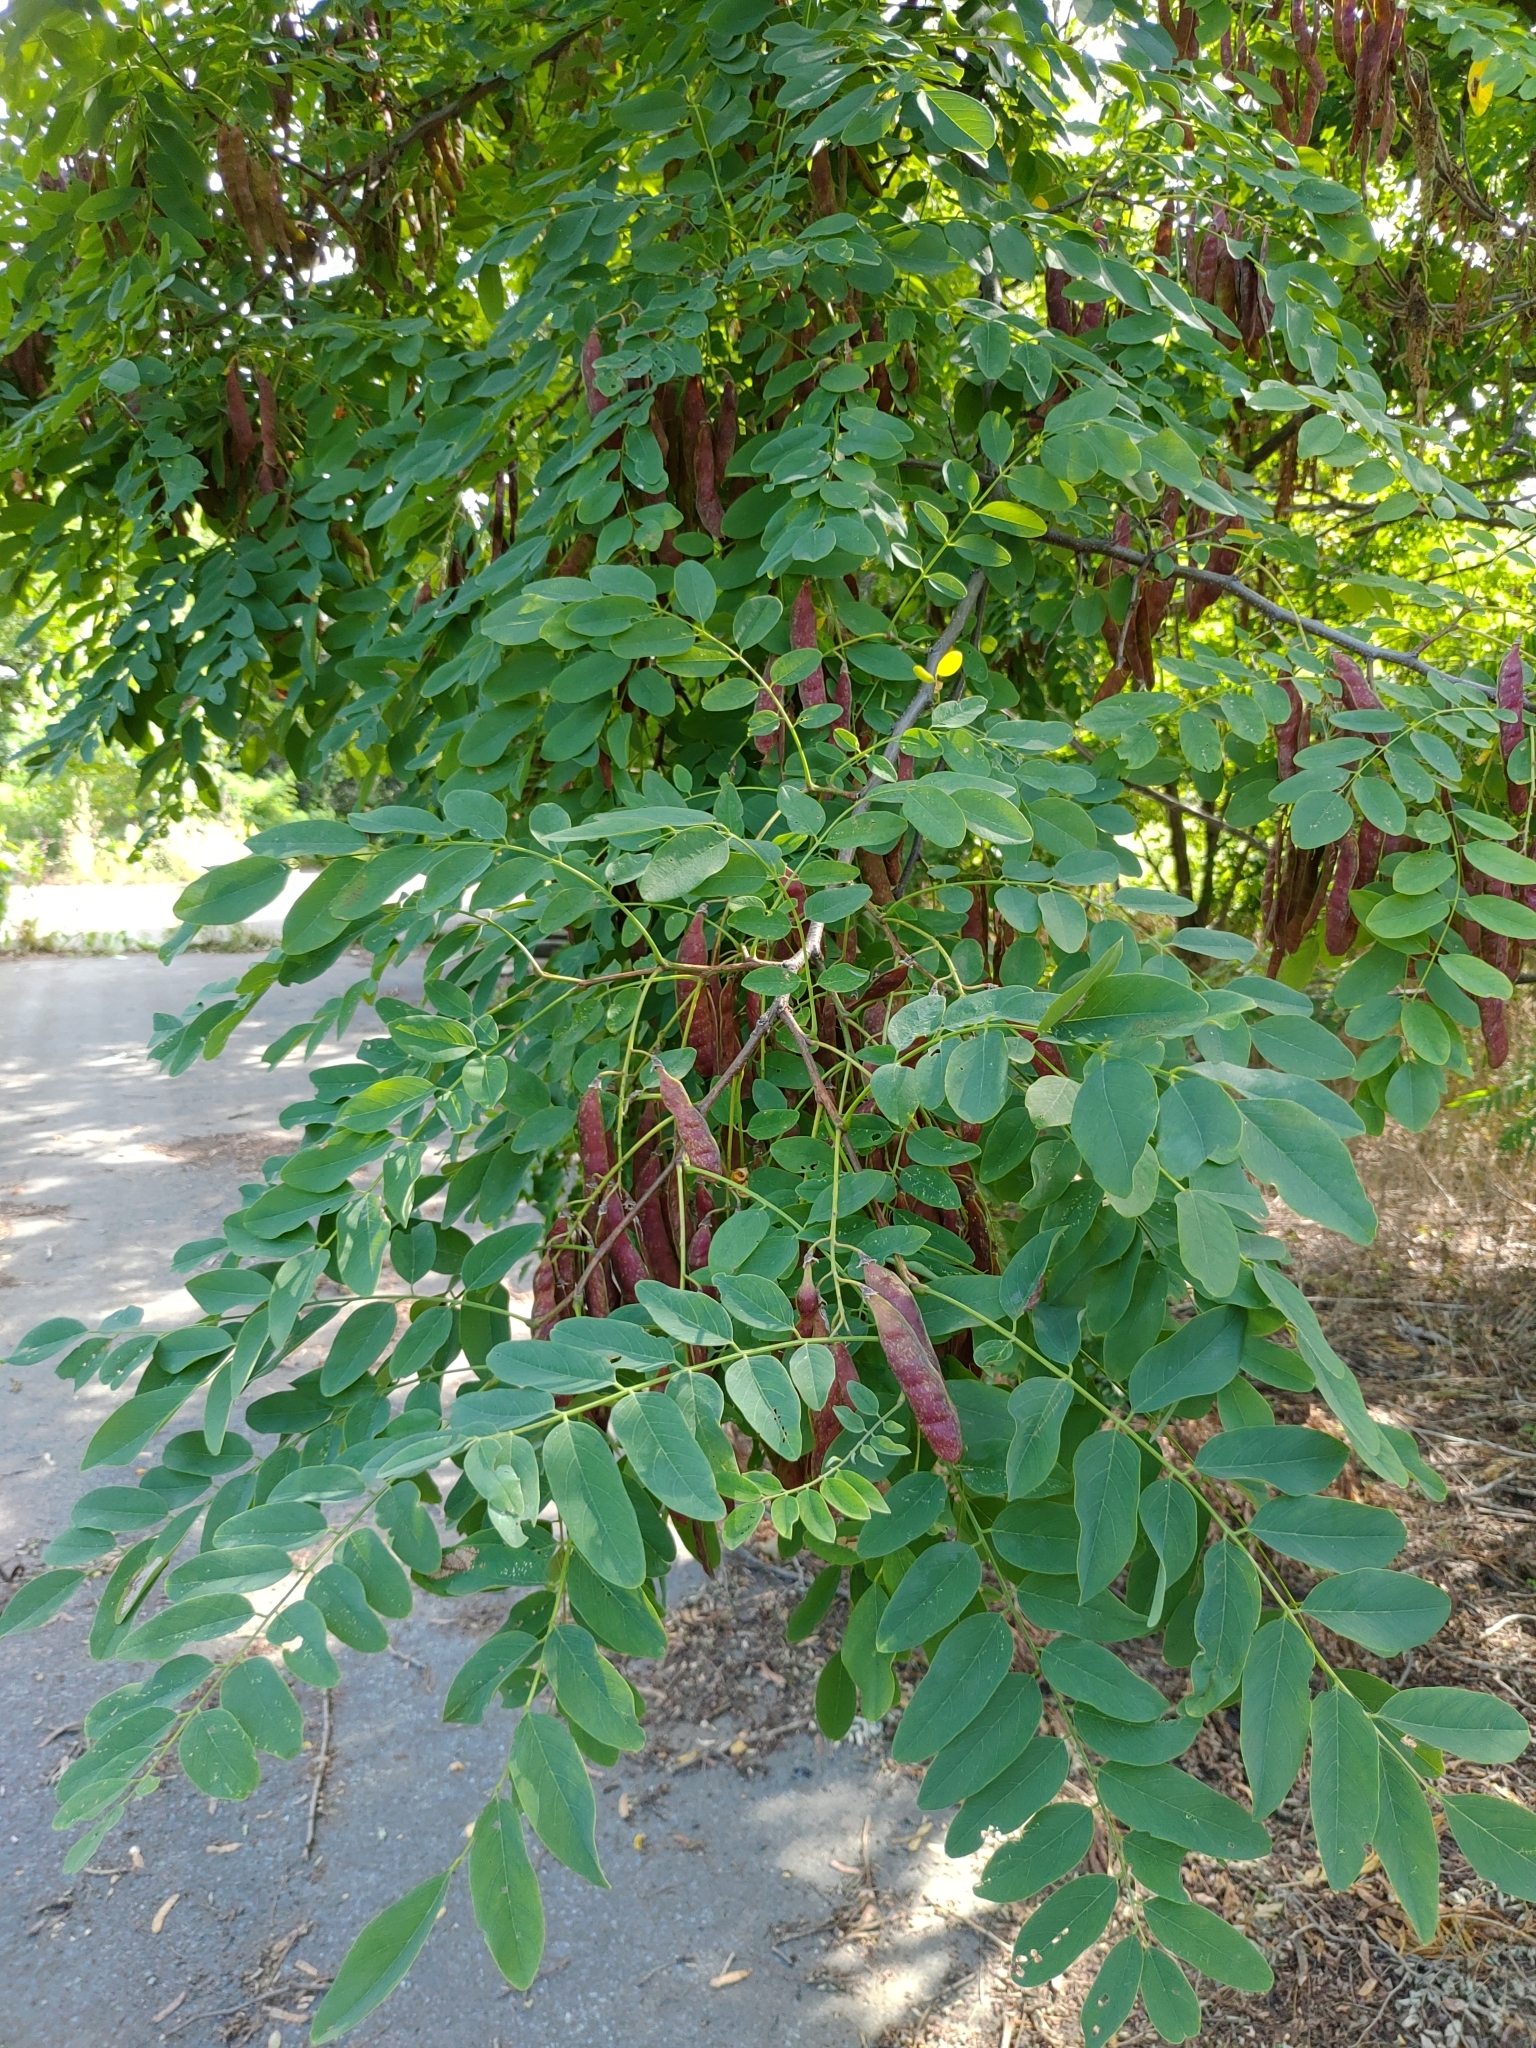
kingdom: Plantae
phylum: Tracheophyta
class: Magnoliopsida
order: Fabales
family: Fabaceae
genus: Robinia
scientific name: Robinia pseudoacacia
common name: Black locust
